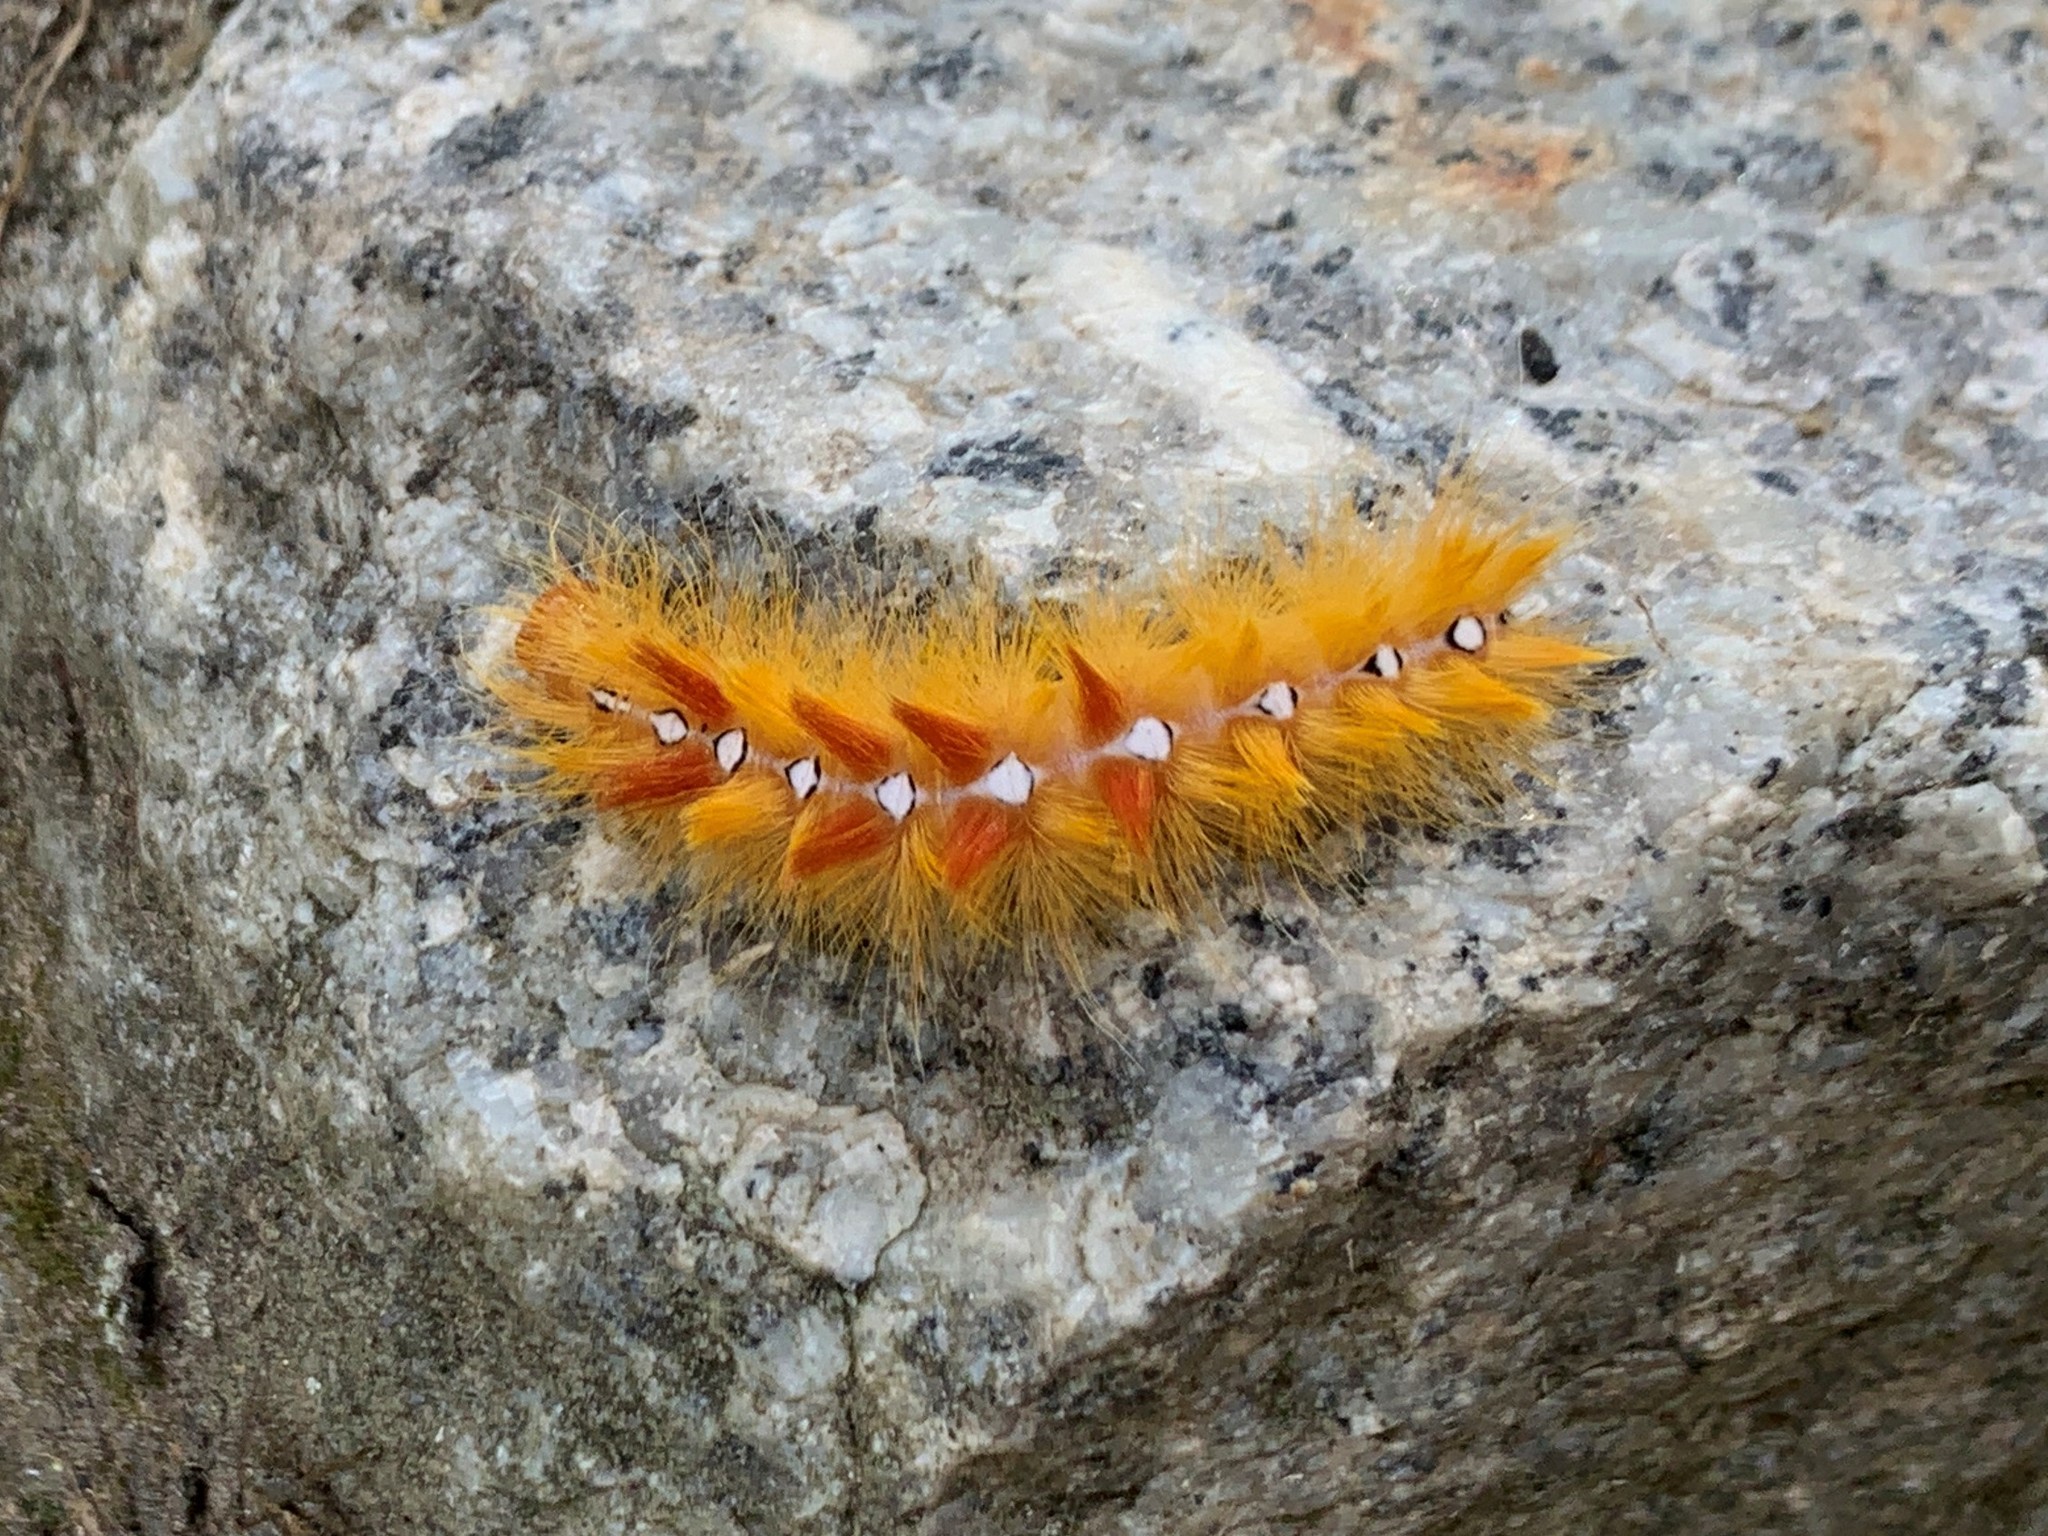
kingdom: Animalia
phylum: Arthropoda
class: Insecta
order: Lepidoptera
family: Noctuidae
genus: Acronicta
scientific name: Acronicta aceris
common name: Sycamore
